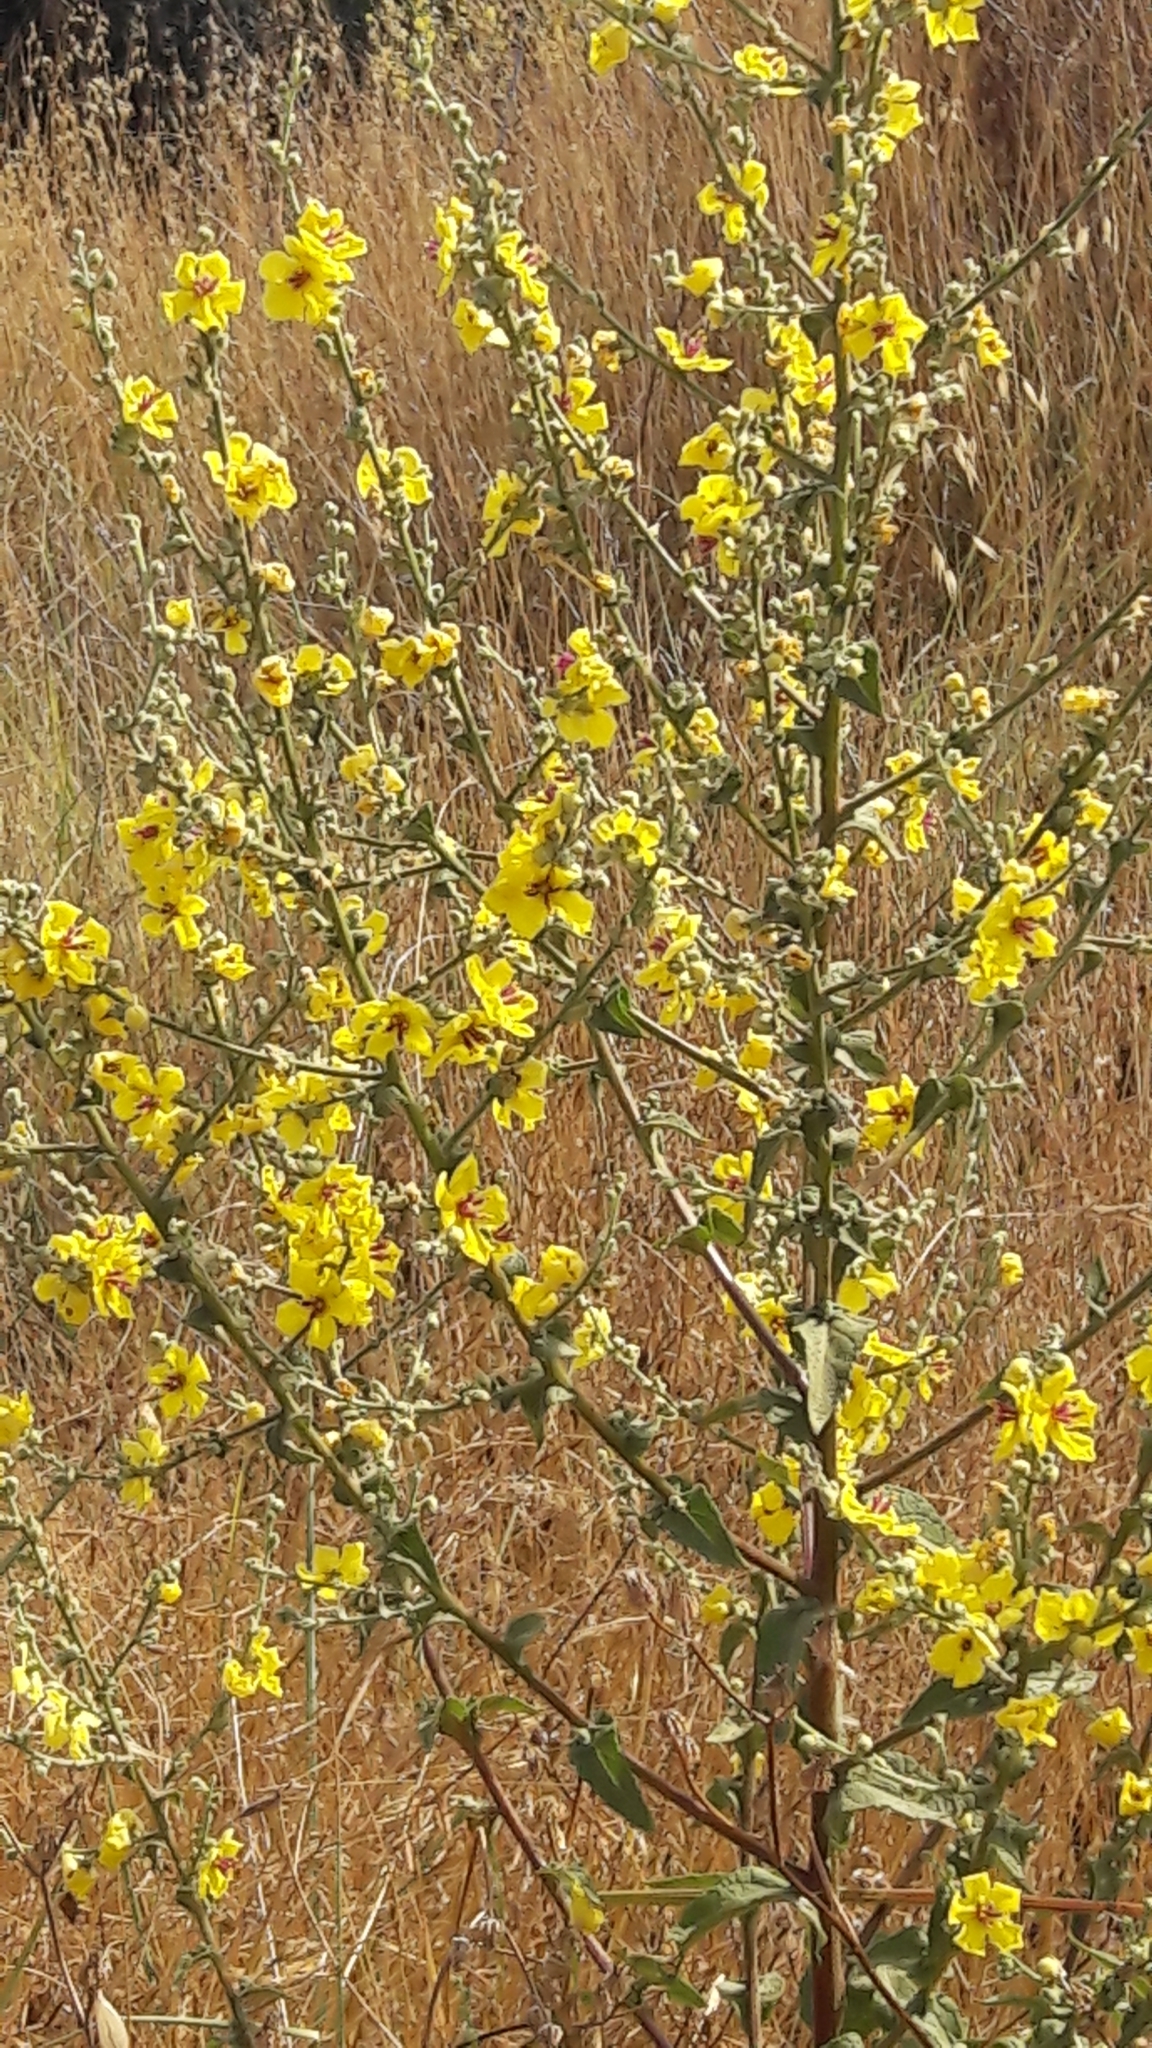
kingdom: Plantae
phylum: Tracheophyta
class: Magnoliopsida
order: Lamiales
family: Scrophulariaceae
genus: Verbascum
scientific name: Verbascum sinuatum
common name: Wavyleaf mullein
